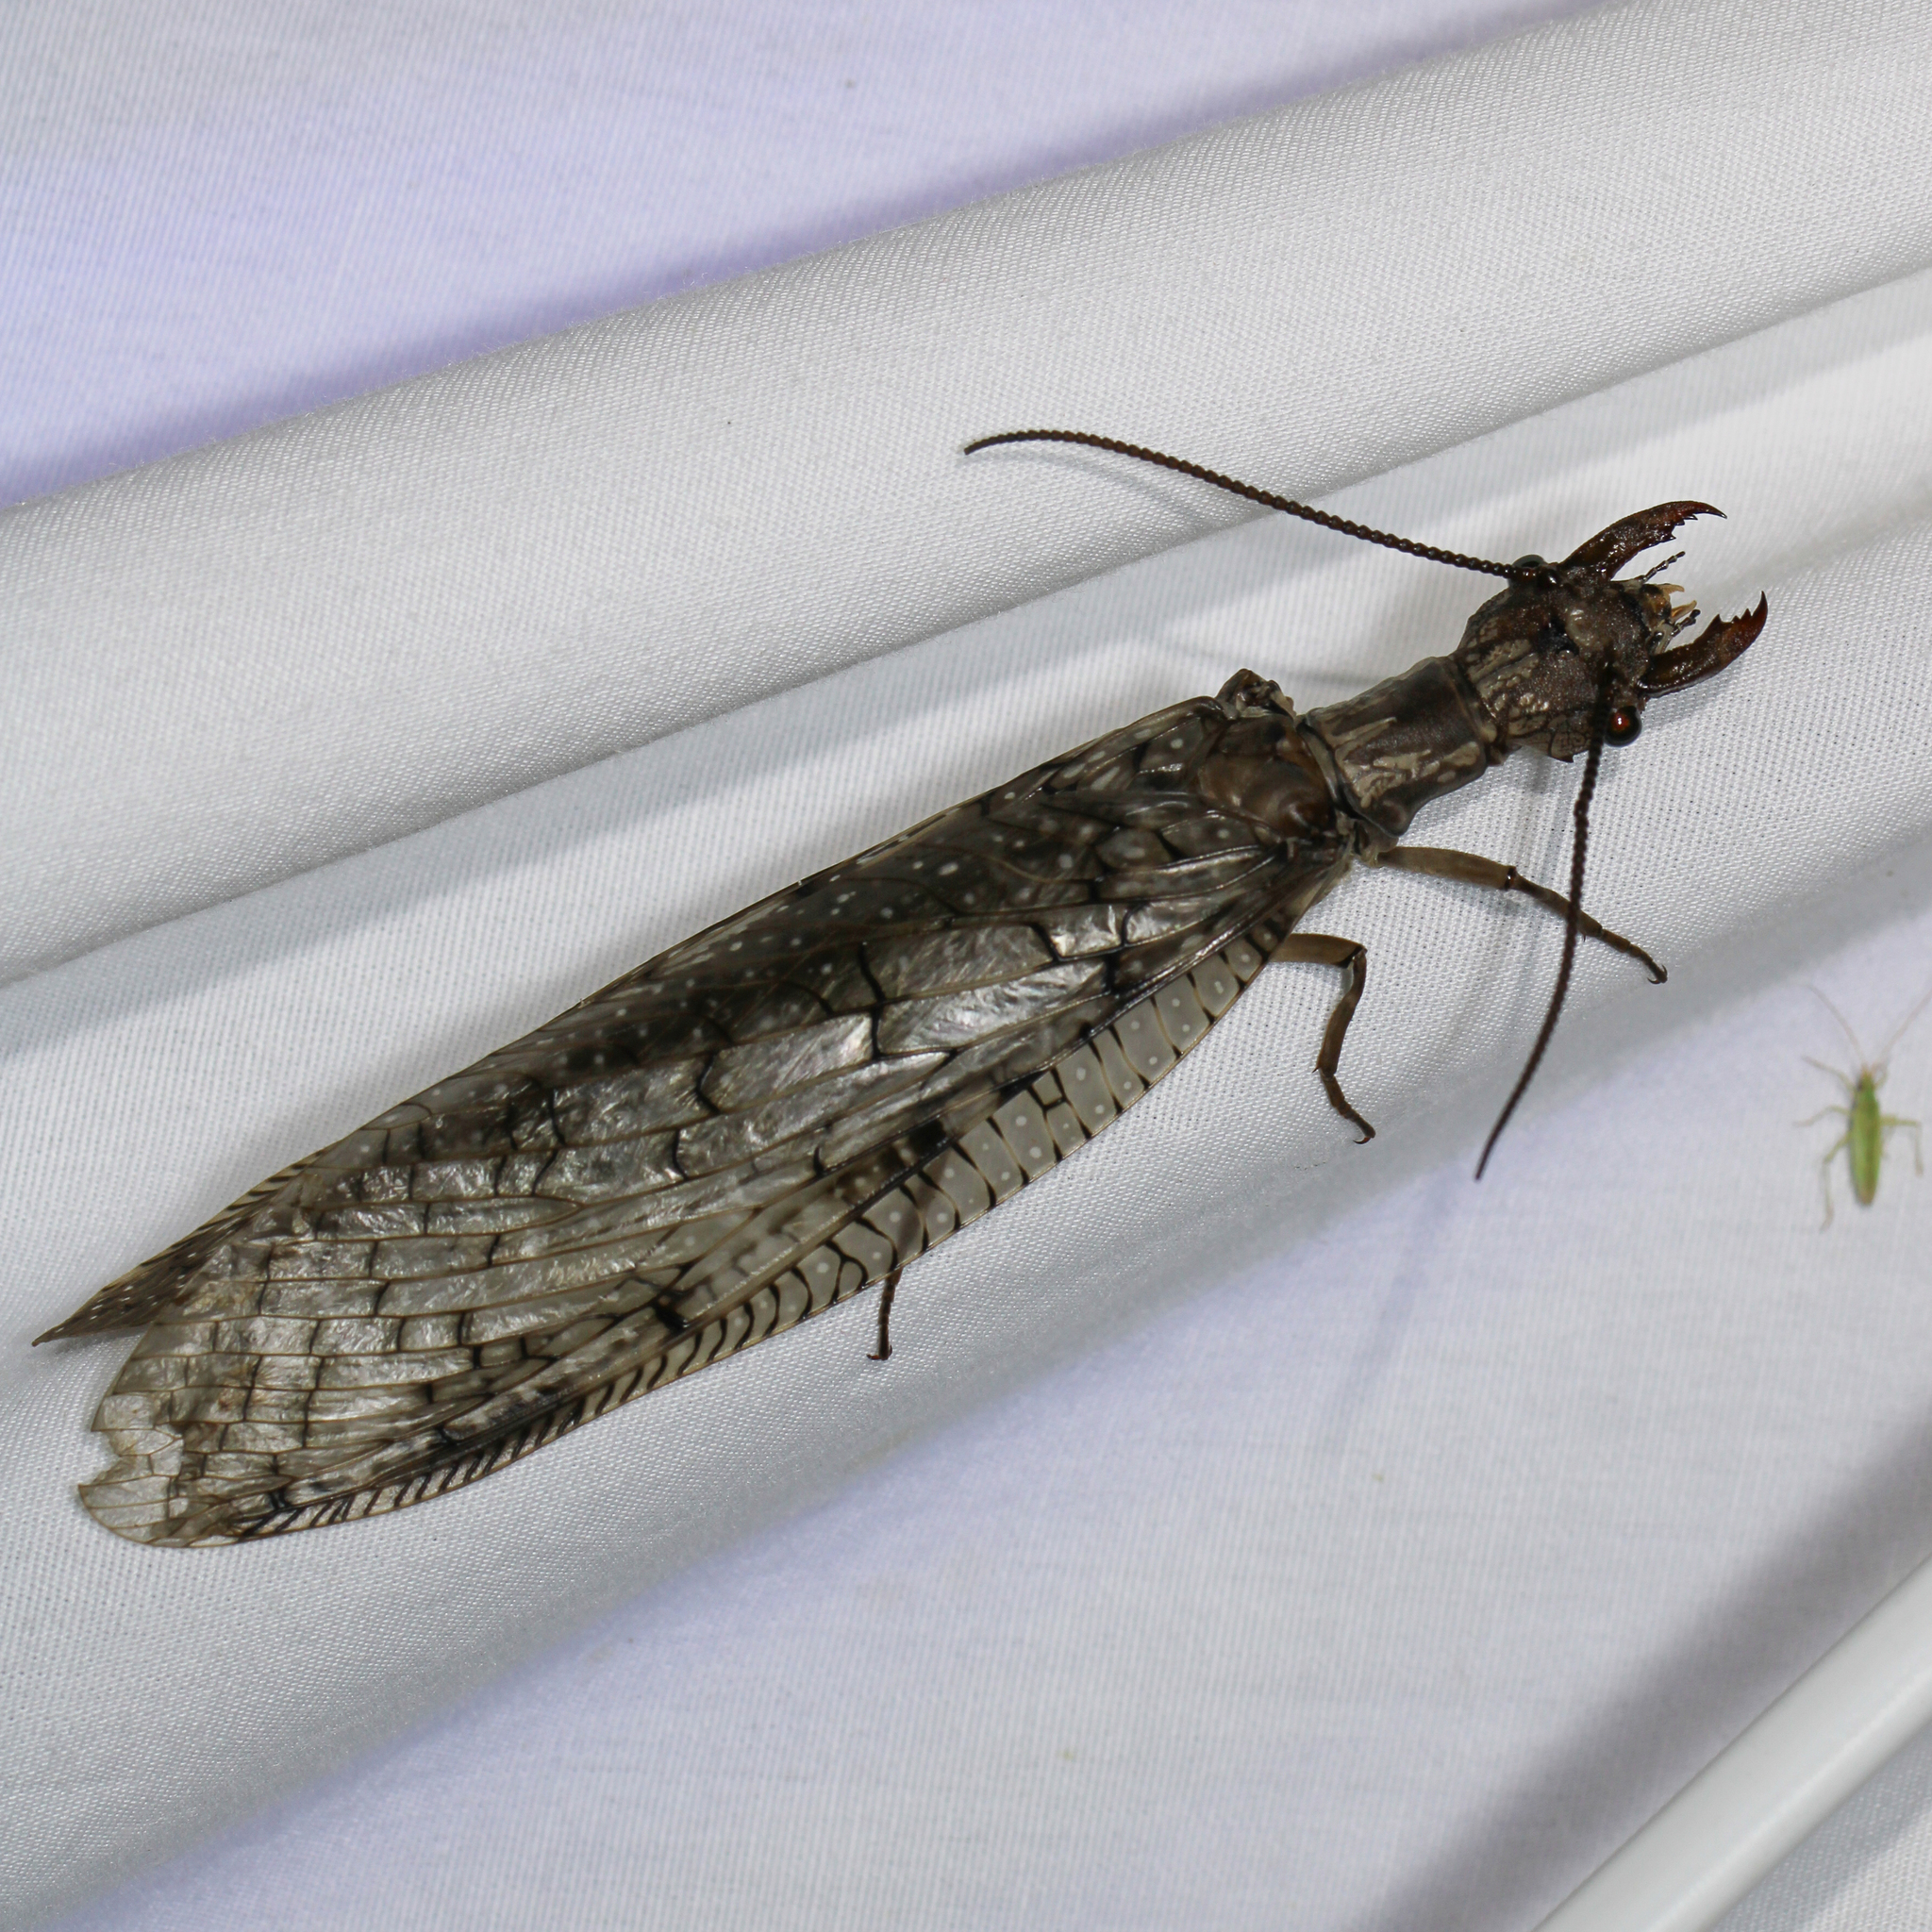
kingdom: Animalia
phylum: Arthropoda
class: Insecta
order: Megaloptera
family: Corydalidae
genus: Corydalus
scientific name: Corydalus cornutus
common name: Dobsonfly
